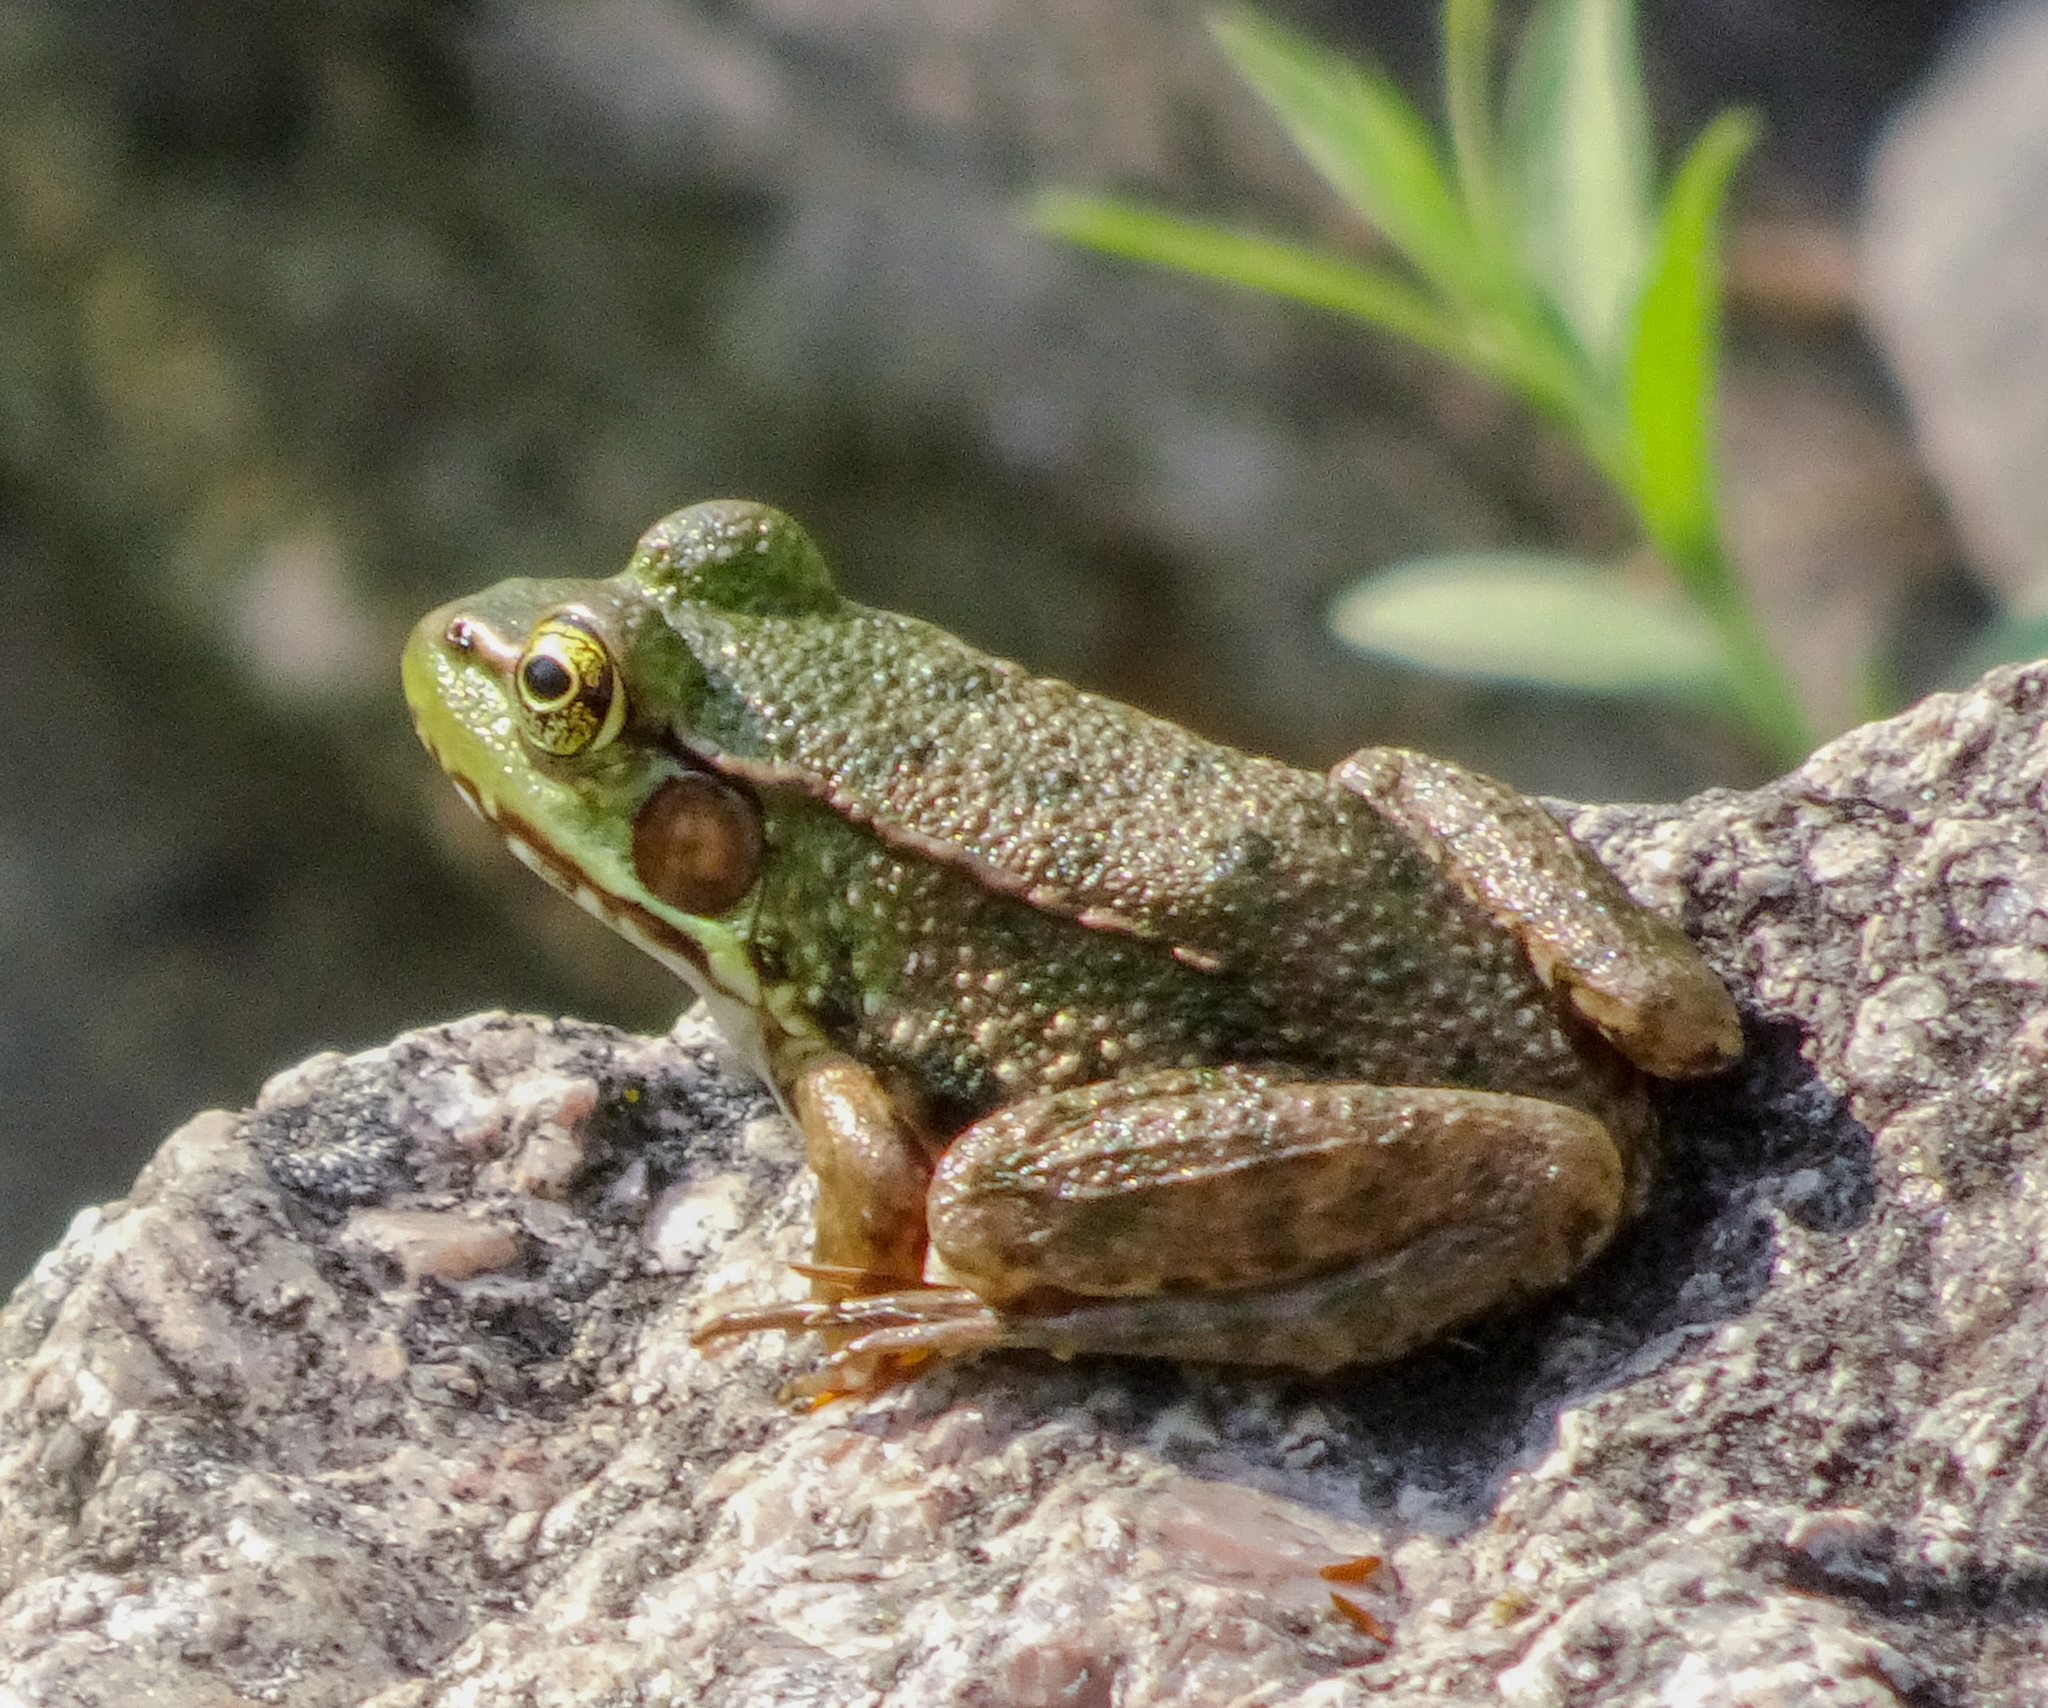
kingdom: Animalia
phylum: Chordata
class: Amphibia
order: Anura
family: Ranidae
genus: Lithobates
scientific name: Lithobates clamitans
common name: Green frog
